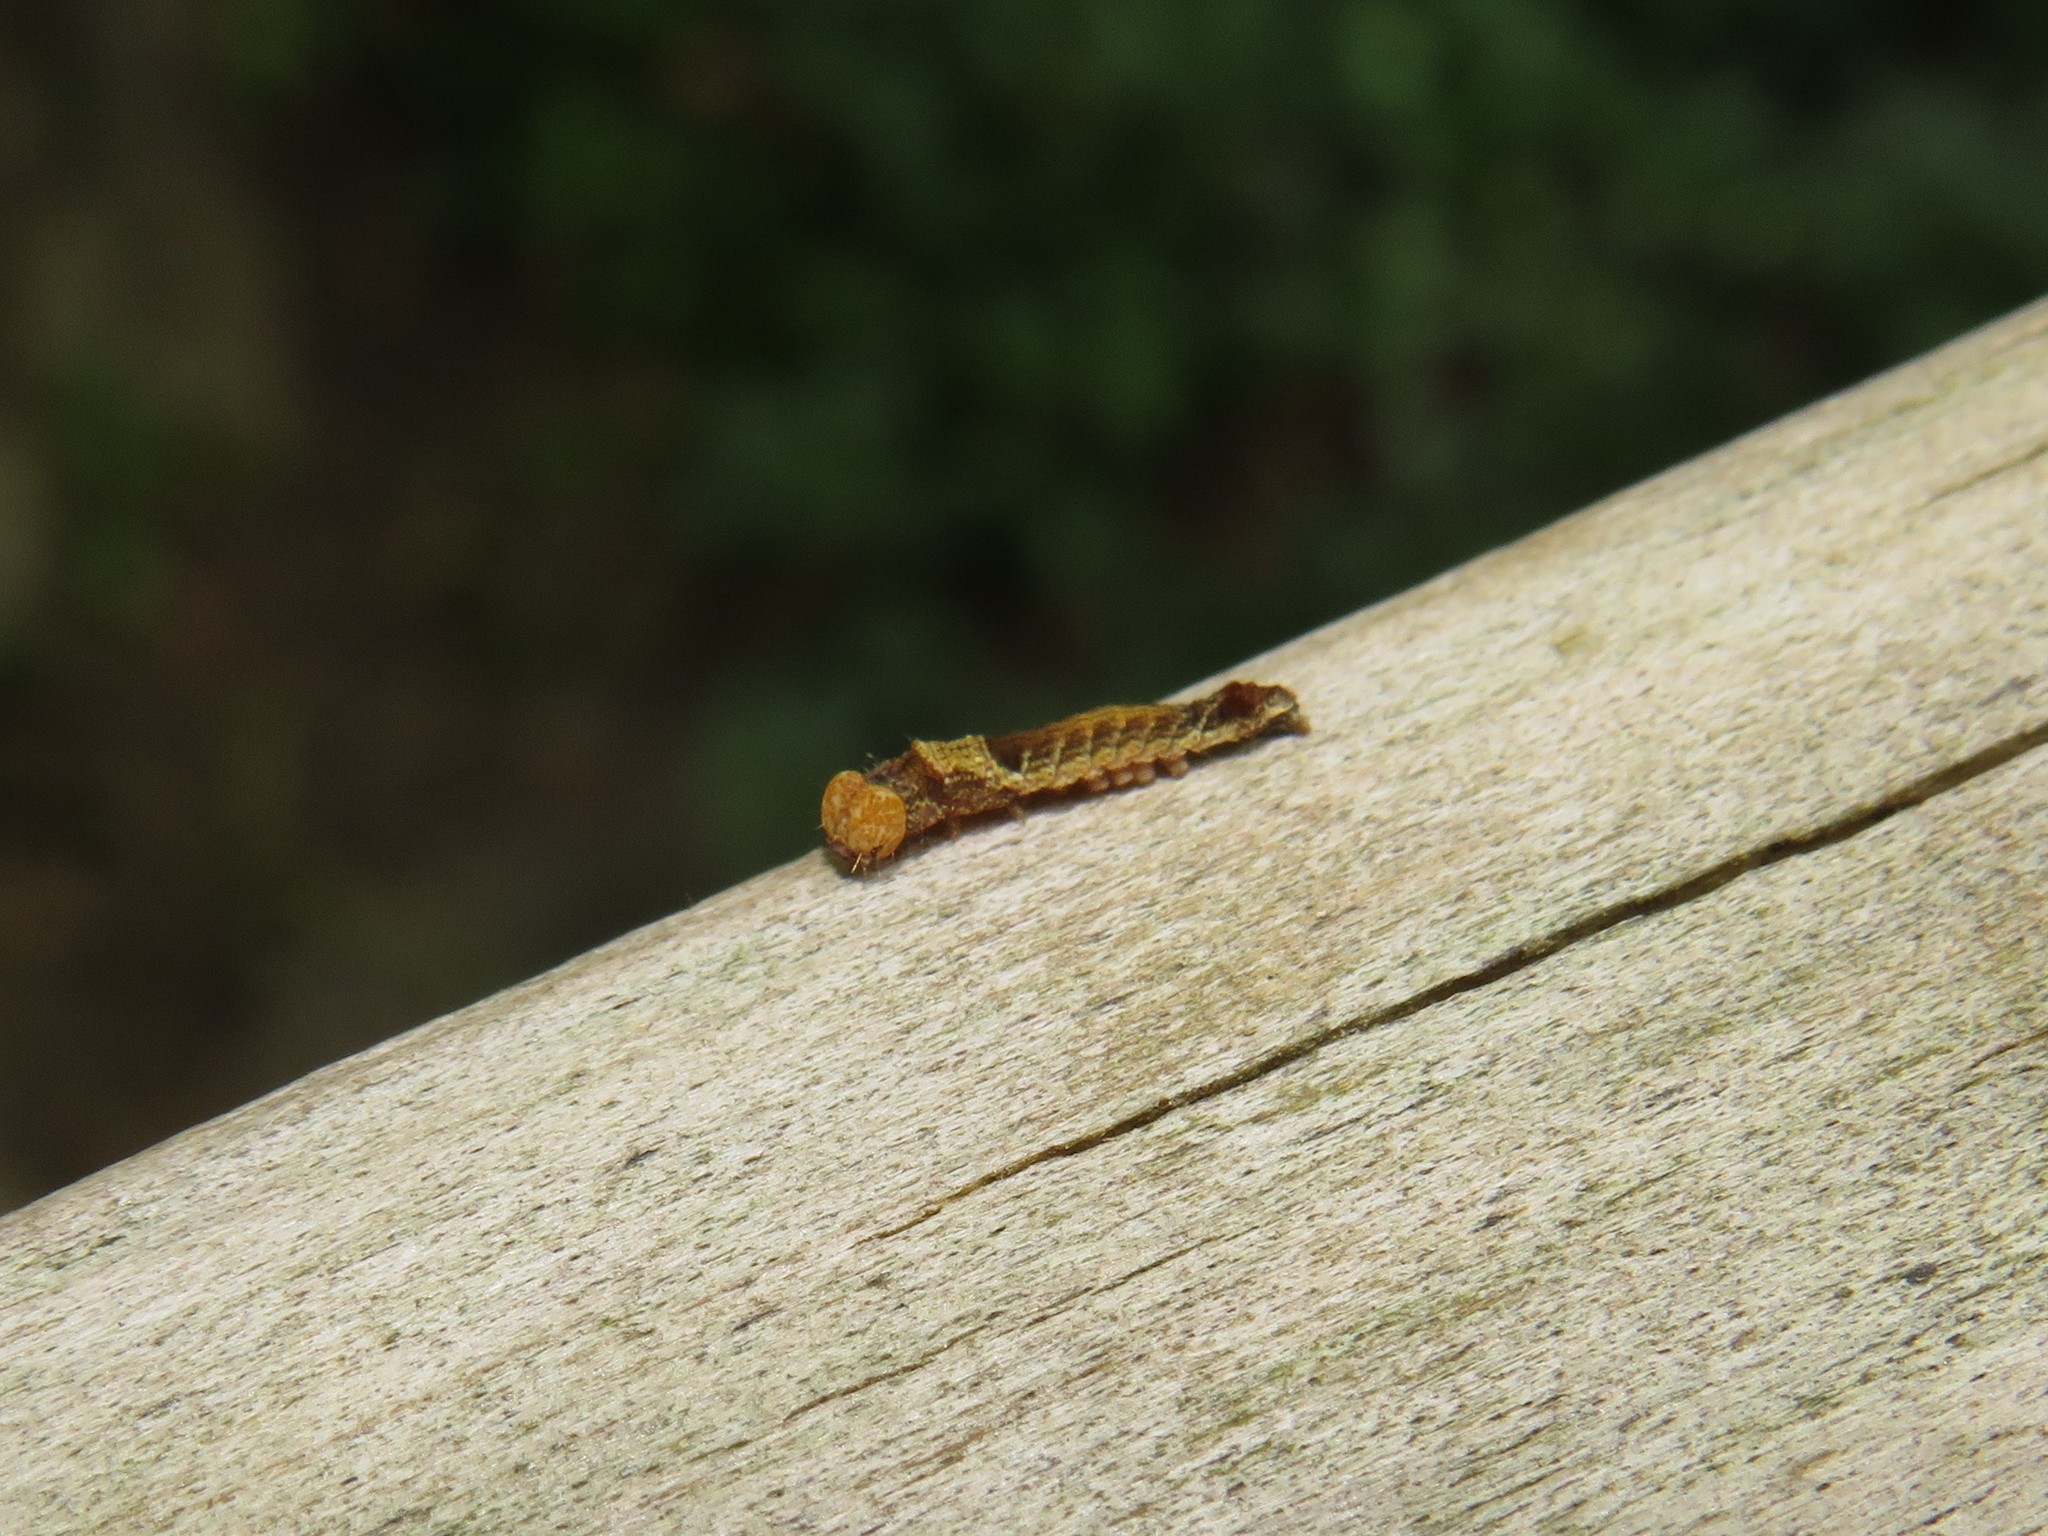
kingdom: Animalia
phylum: Arthropoda
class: Insecta
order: Lepidoptera
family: Drepanidae
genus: Pseudothyatira
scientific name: Pseudothyatira cymatophoroides
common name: Tufted thyatirid moth
